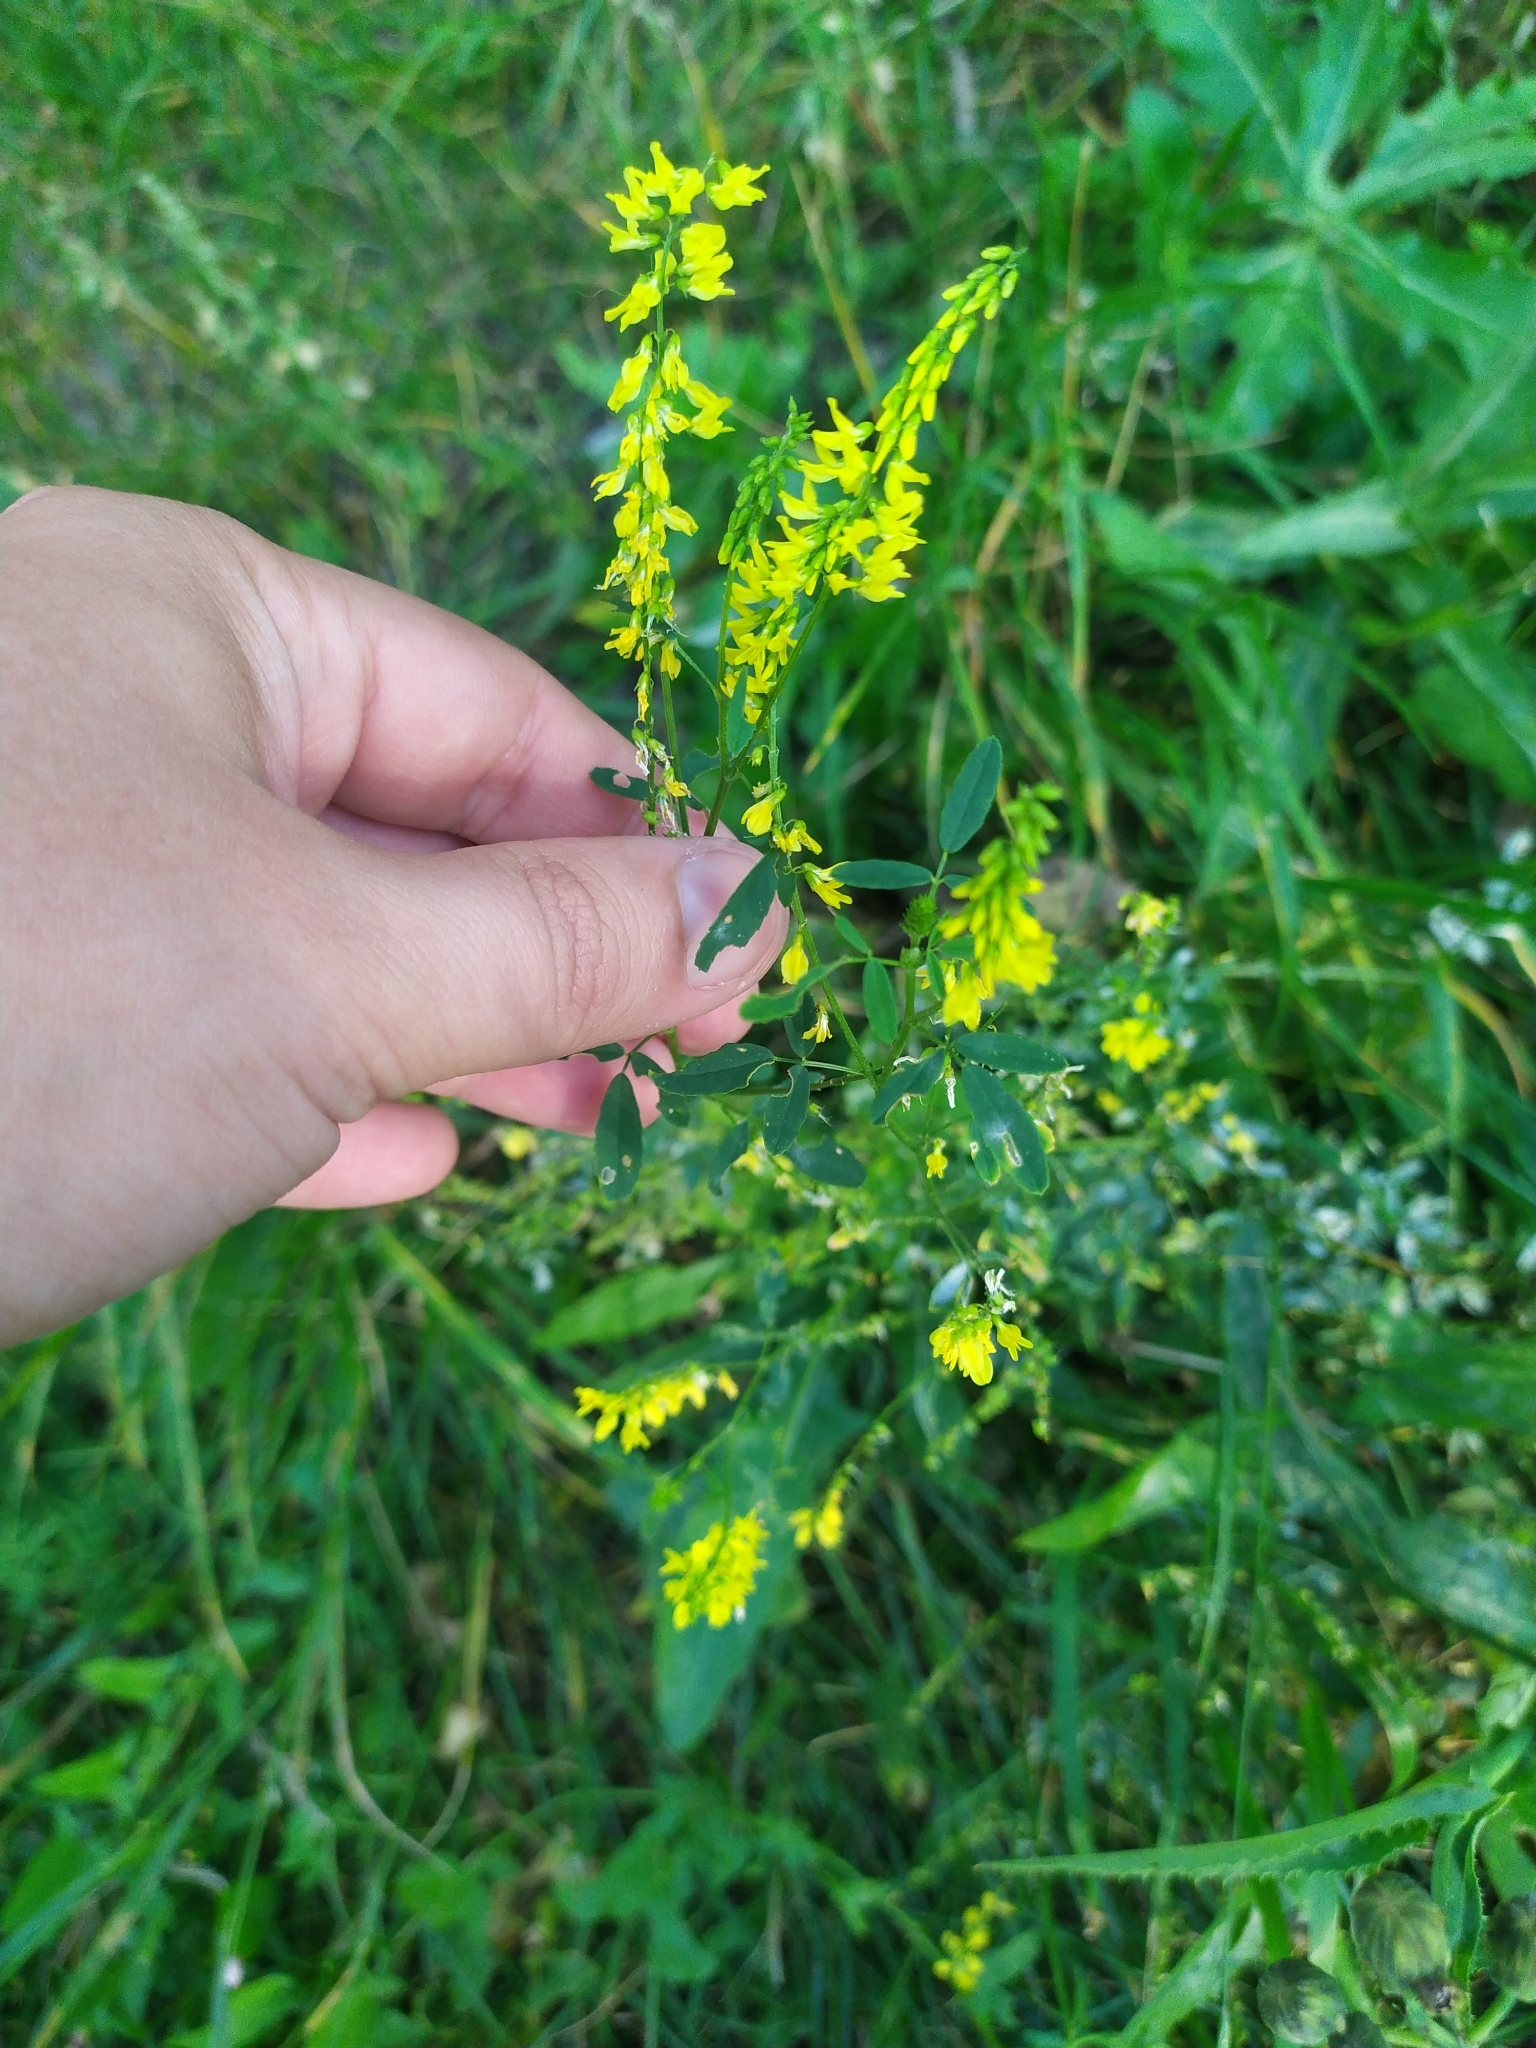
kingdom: Plantae
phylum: Tracheophyta
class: Magnoliopsida
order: Fabales
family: Fabaceae
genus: Melilotus
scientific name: Melilotus officinalis
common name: Sweetclover
